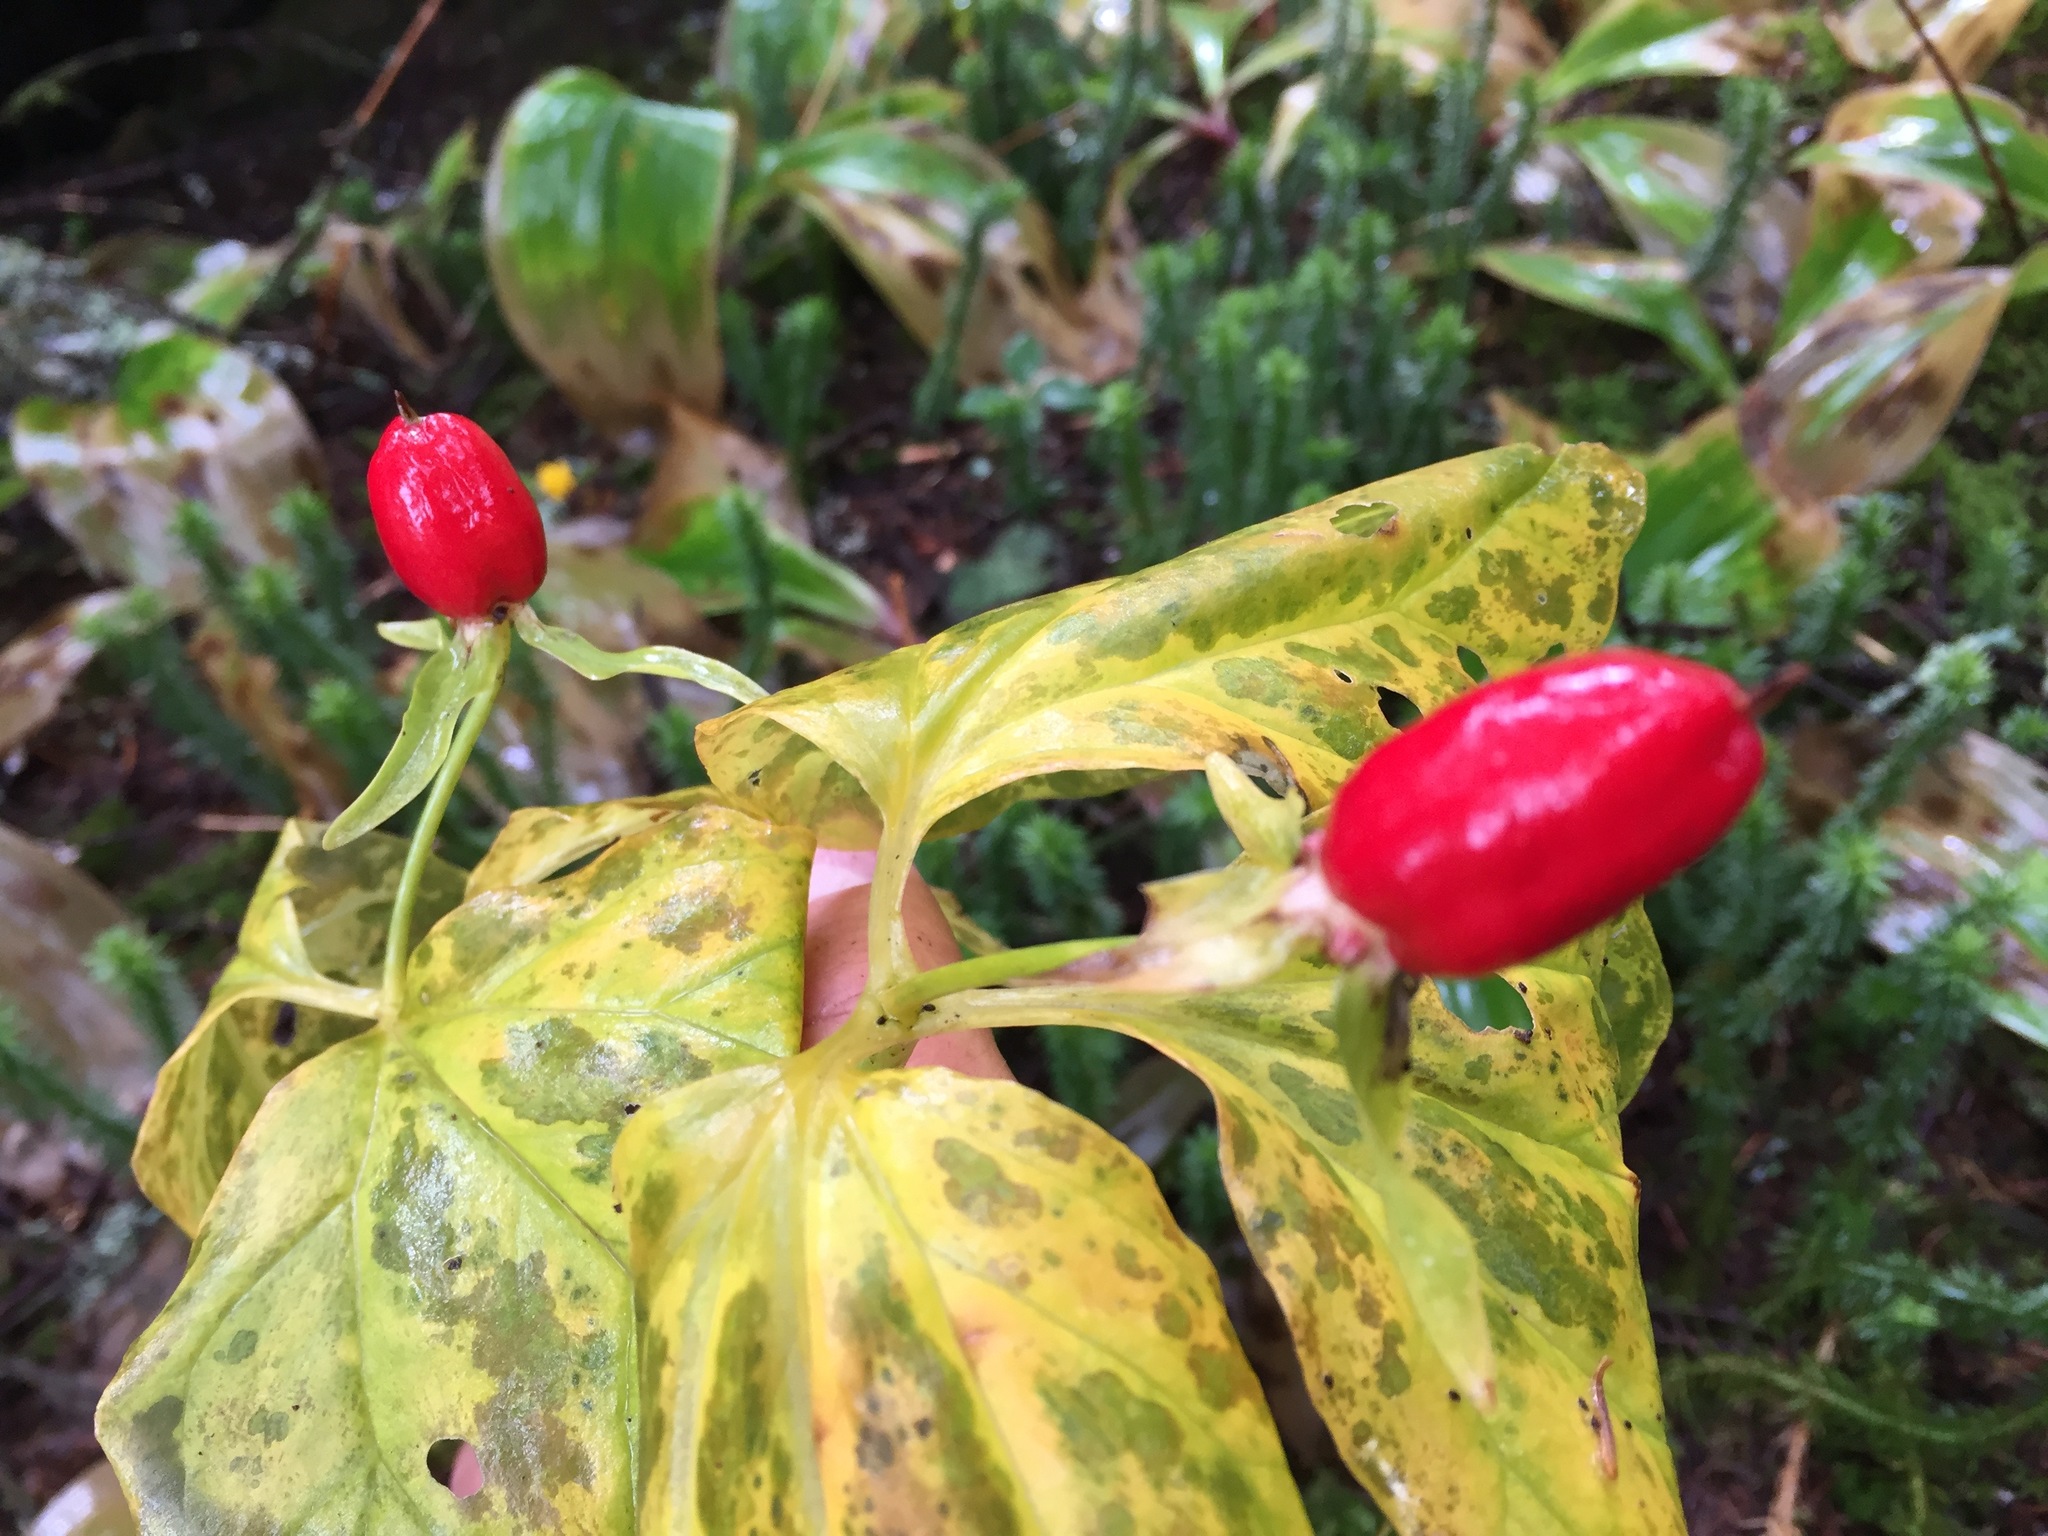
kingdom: Plantae
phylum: Tracheophyta
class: Liliopsida
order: Liliales
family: Melanthiaceae
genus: Trillium
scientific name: Trillium undulatum
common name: Paint trillium
